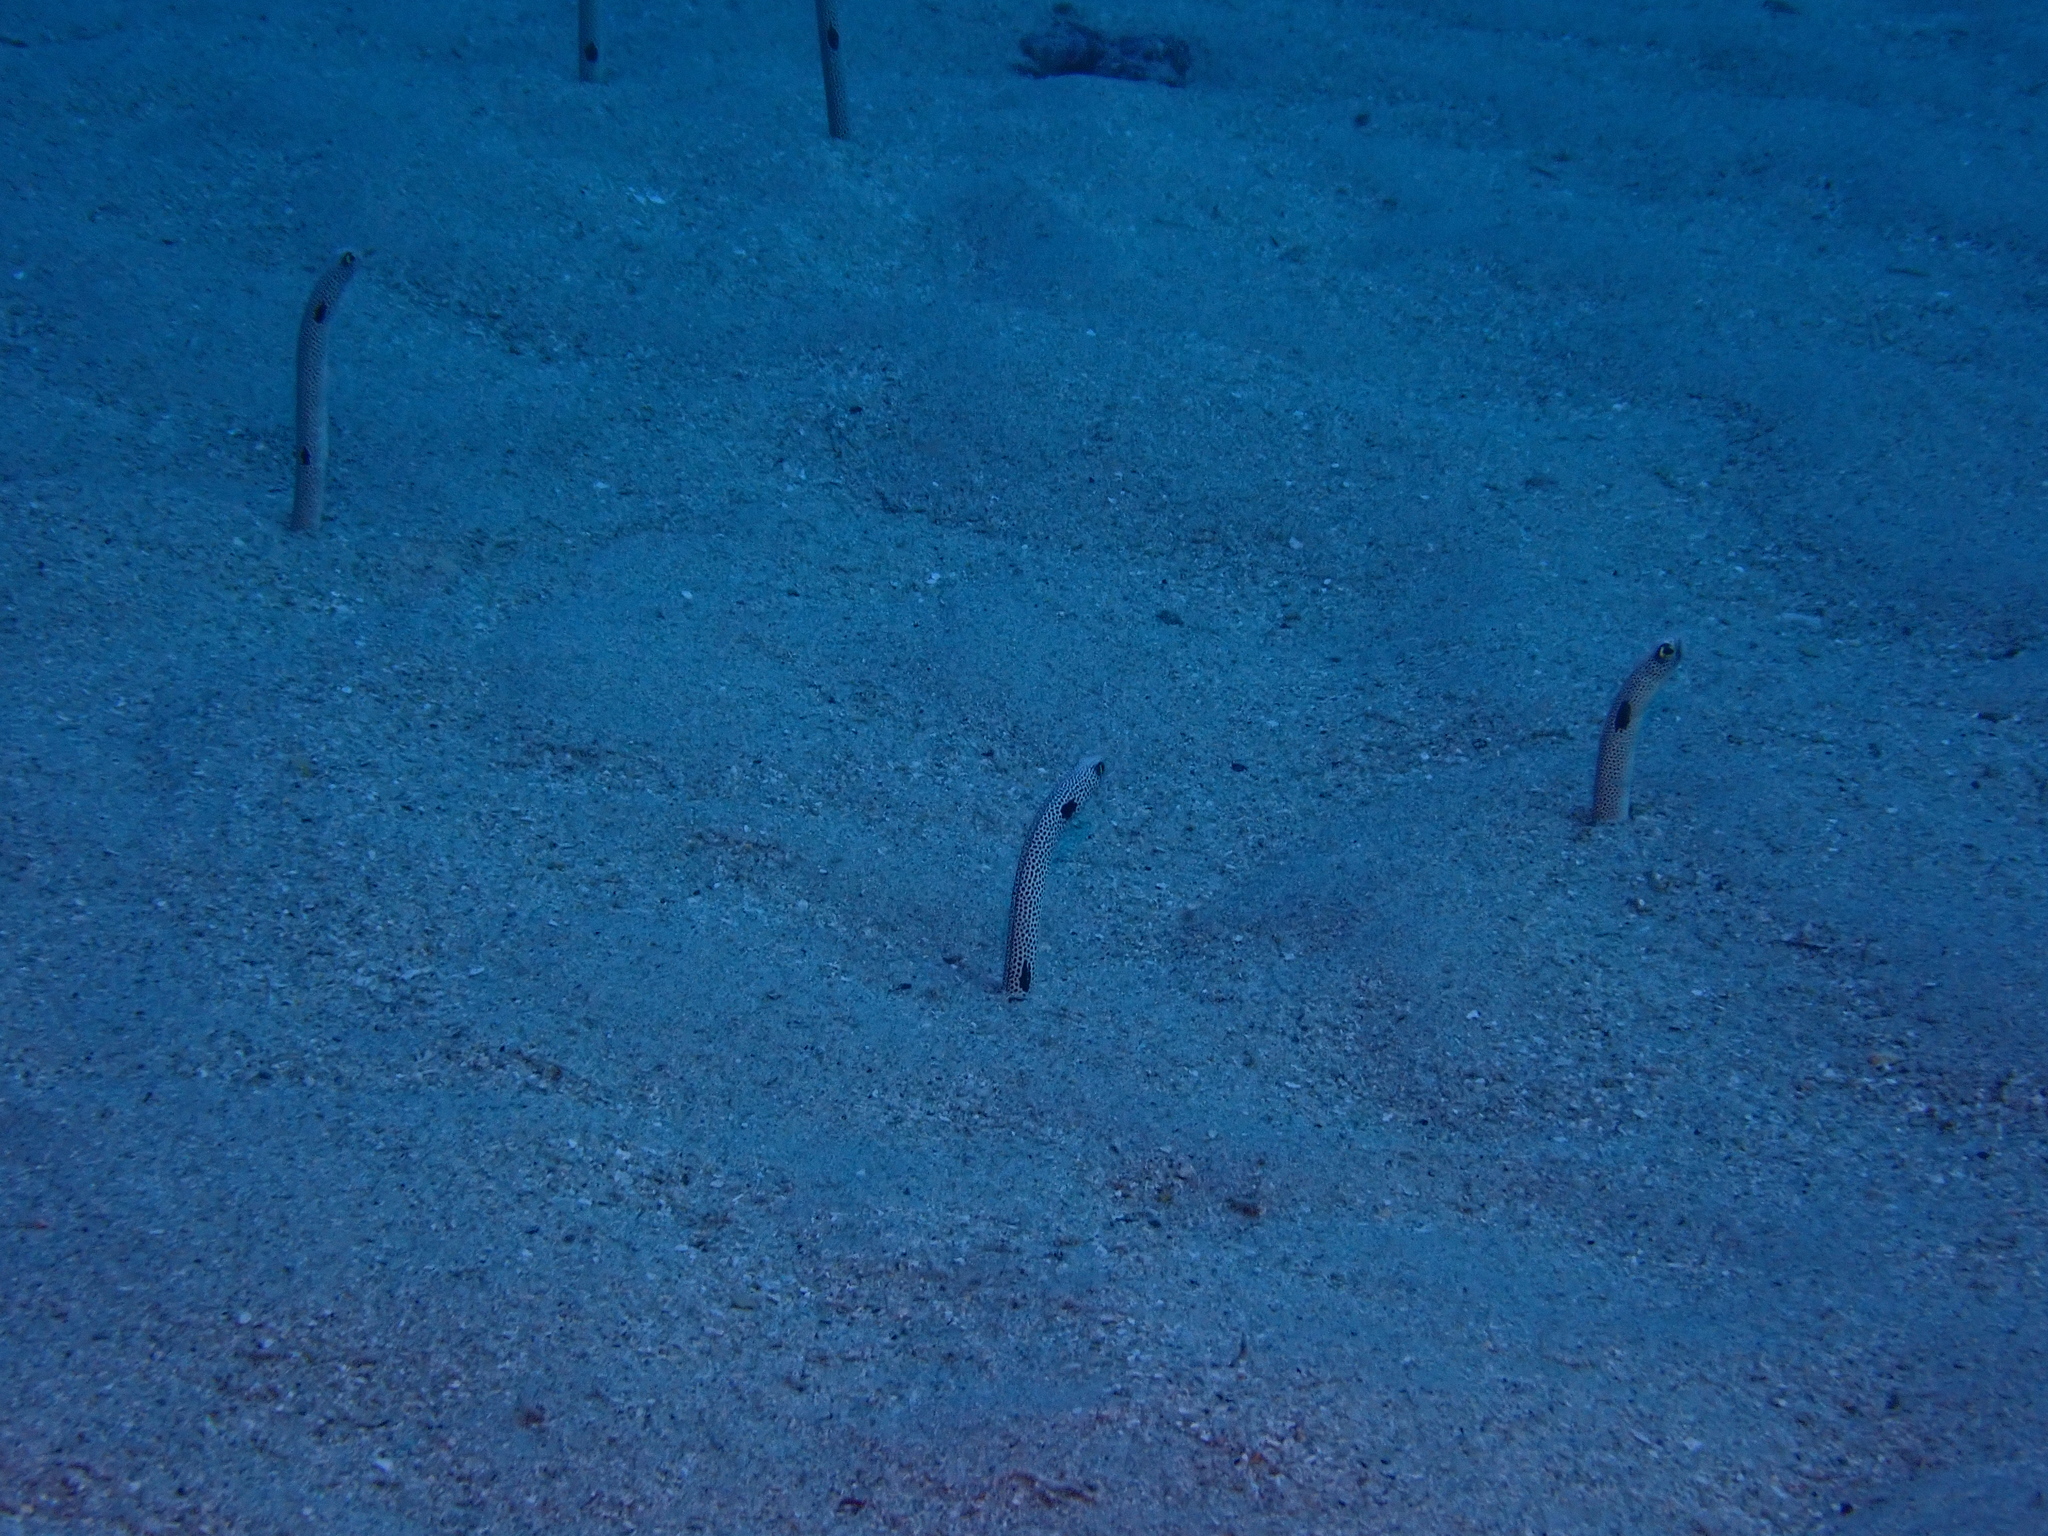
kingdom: Animalia
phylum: Chordata
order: Anguilliformes
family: Congridae
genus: Heteroconger
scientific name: Heteroconger hassi
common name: Spotted garden eel
